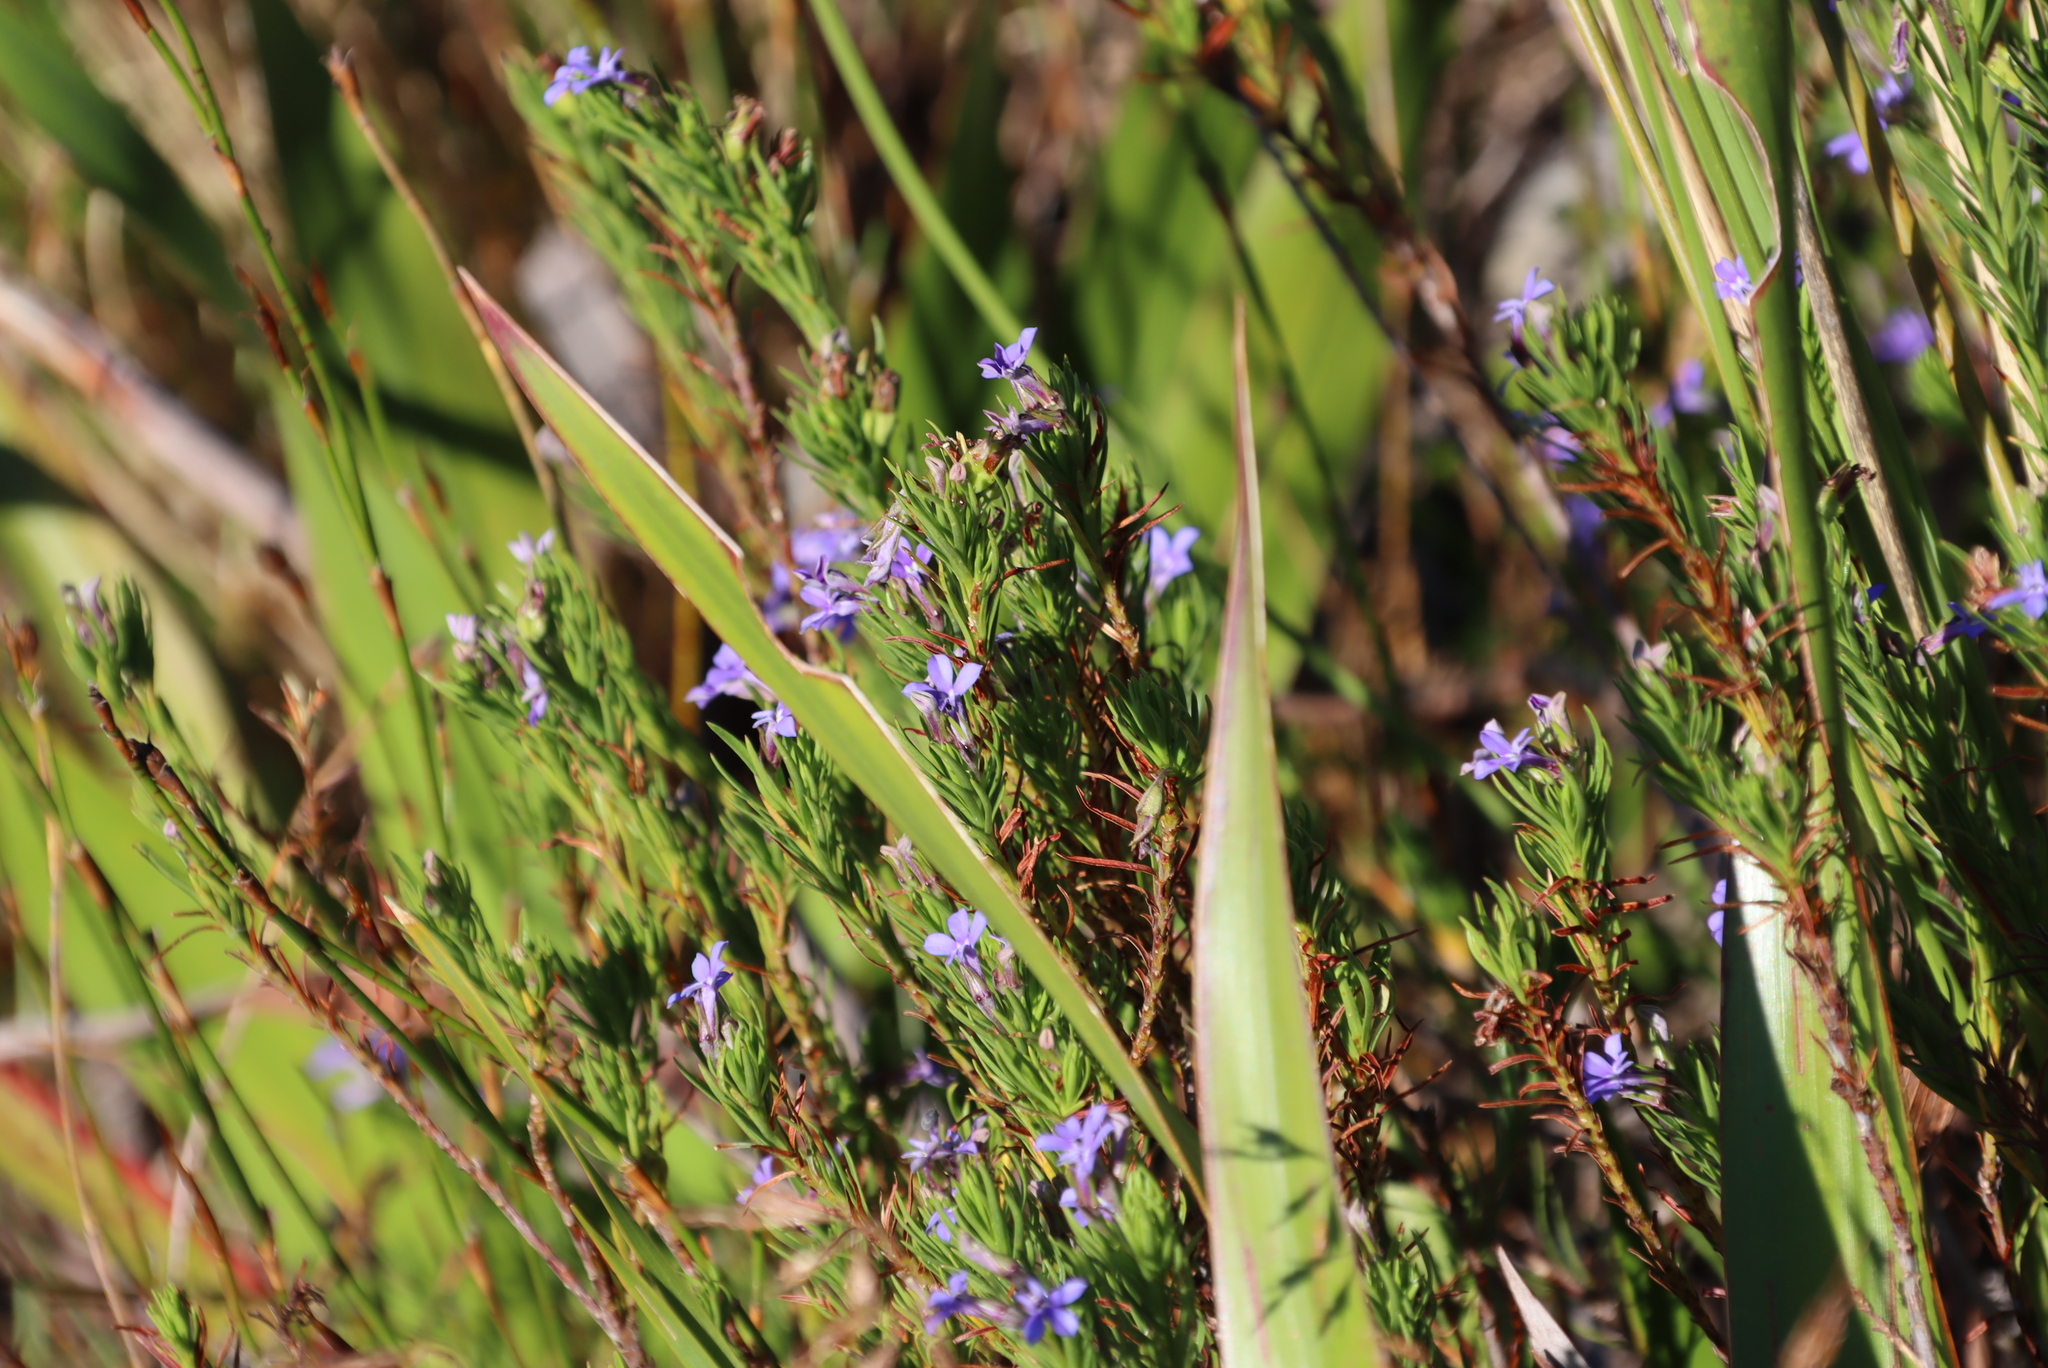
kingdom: Plantae
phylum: Tracheophyta
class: Magnoliopsida
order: Asterales
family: Campanulaceae
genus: Lobelia
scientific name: Lobelia pinifolia
